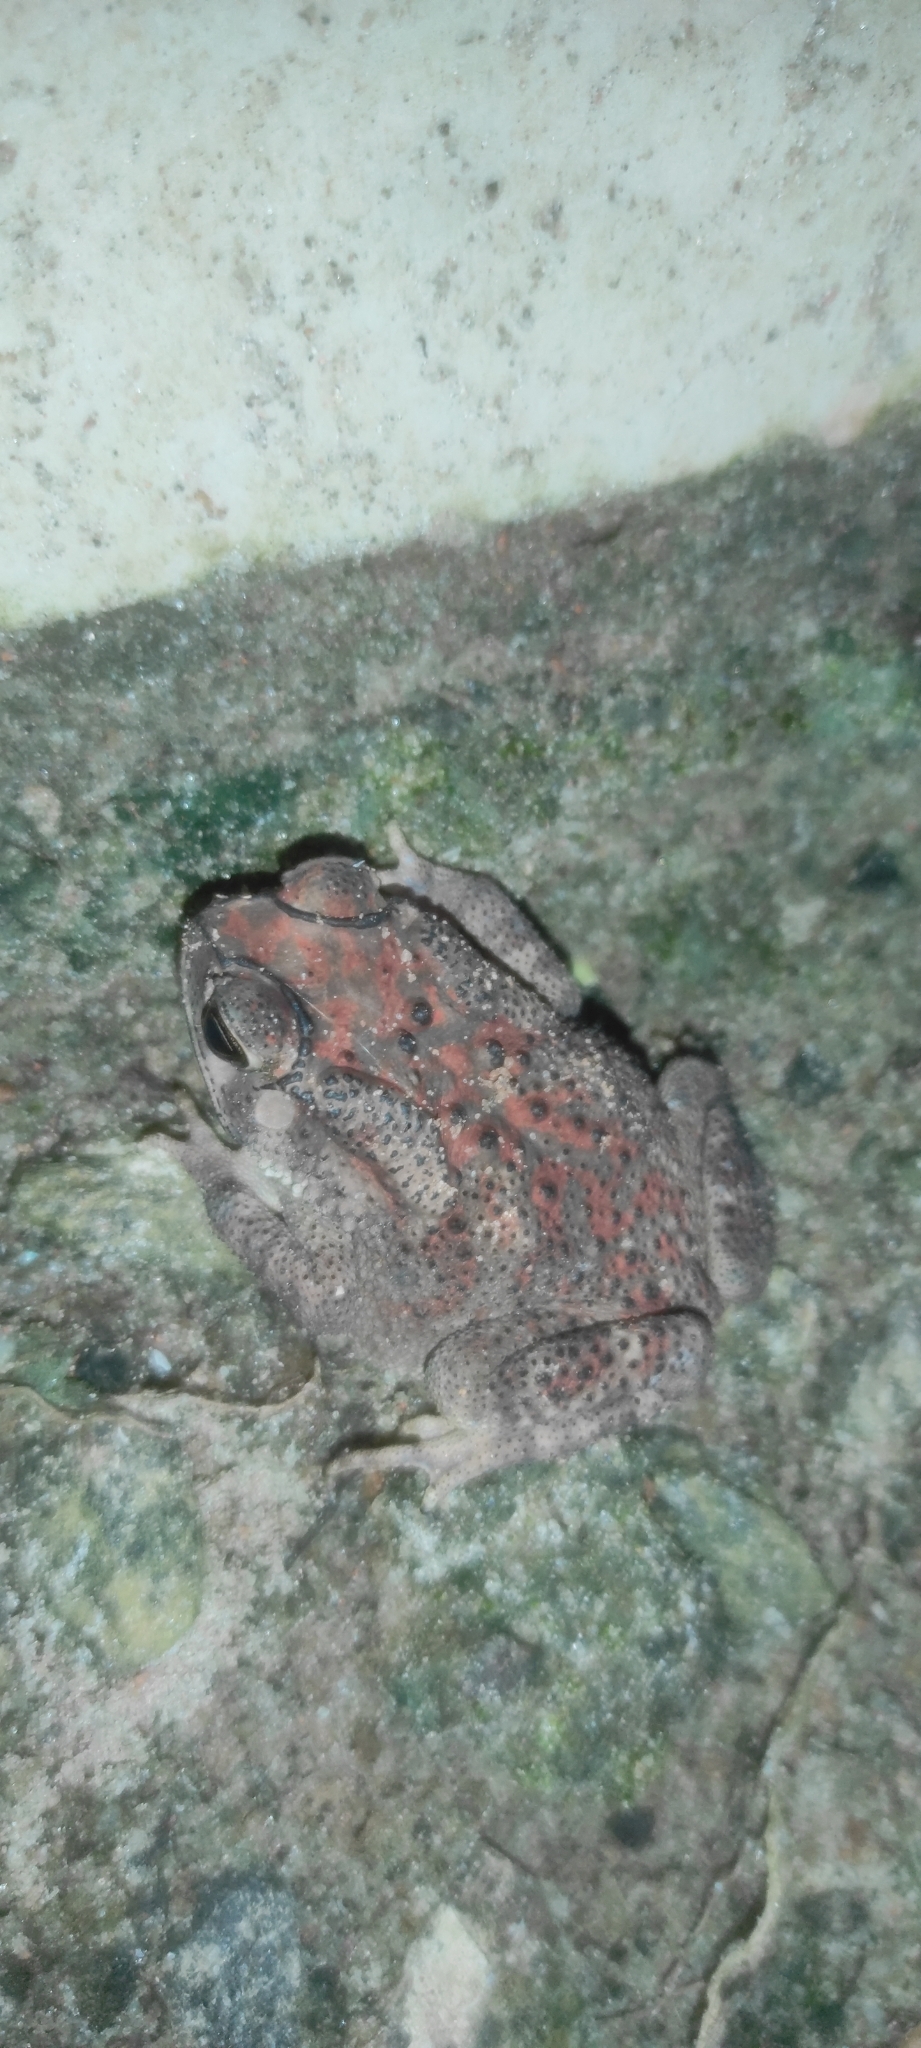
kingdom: Animalia
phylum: Chordata
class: Amphibia
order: Anura
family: Bufonidae
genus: Duttaphrynus
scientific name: Duttaphrynus melanostictus
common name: Common sunda toad
